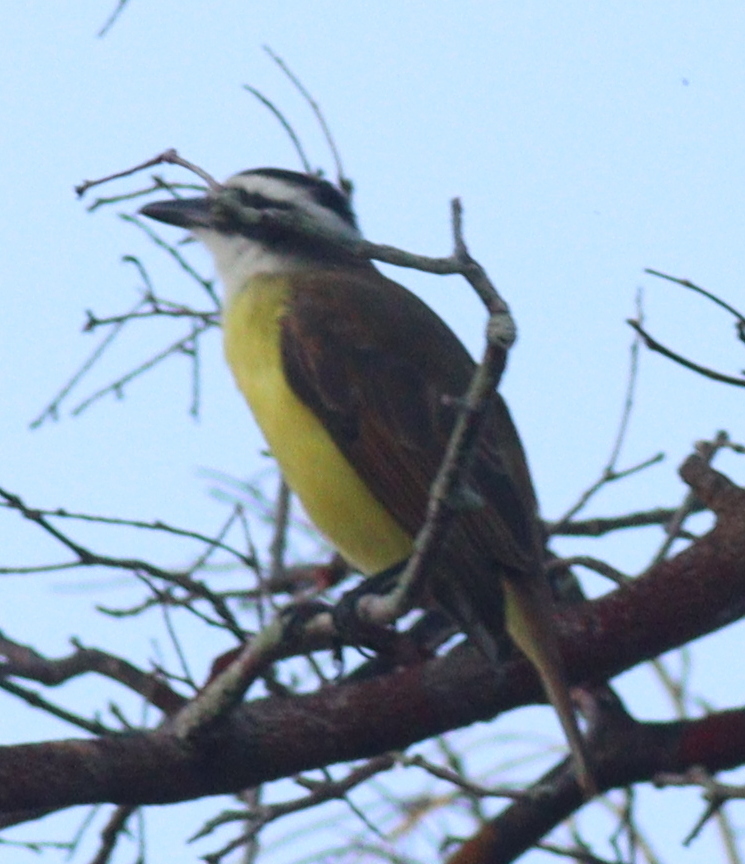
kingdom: Animalia
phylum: Chordata
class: Aves
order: Passeriformes
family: Tyrannidae
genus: Pitangus
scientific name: Pitangus sulphuratus
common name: Great kiskadee
